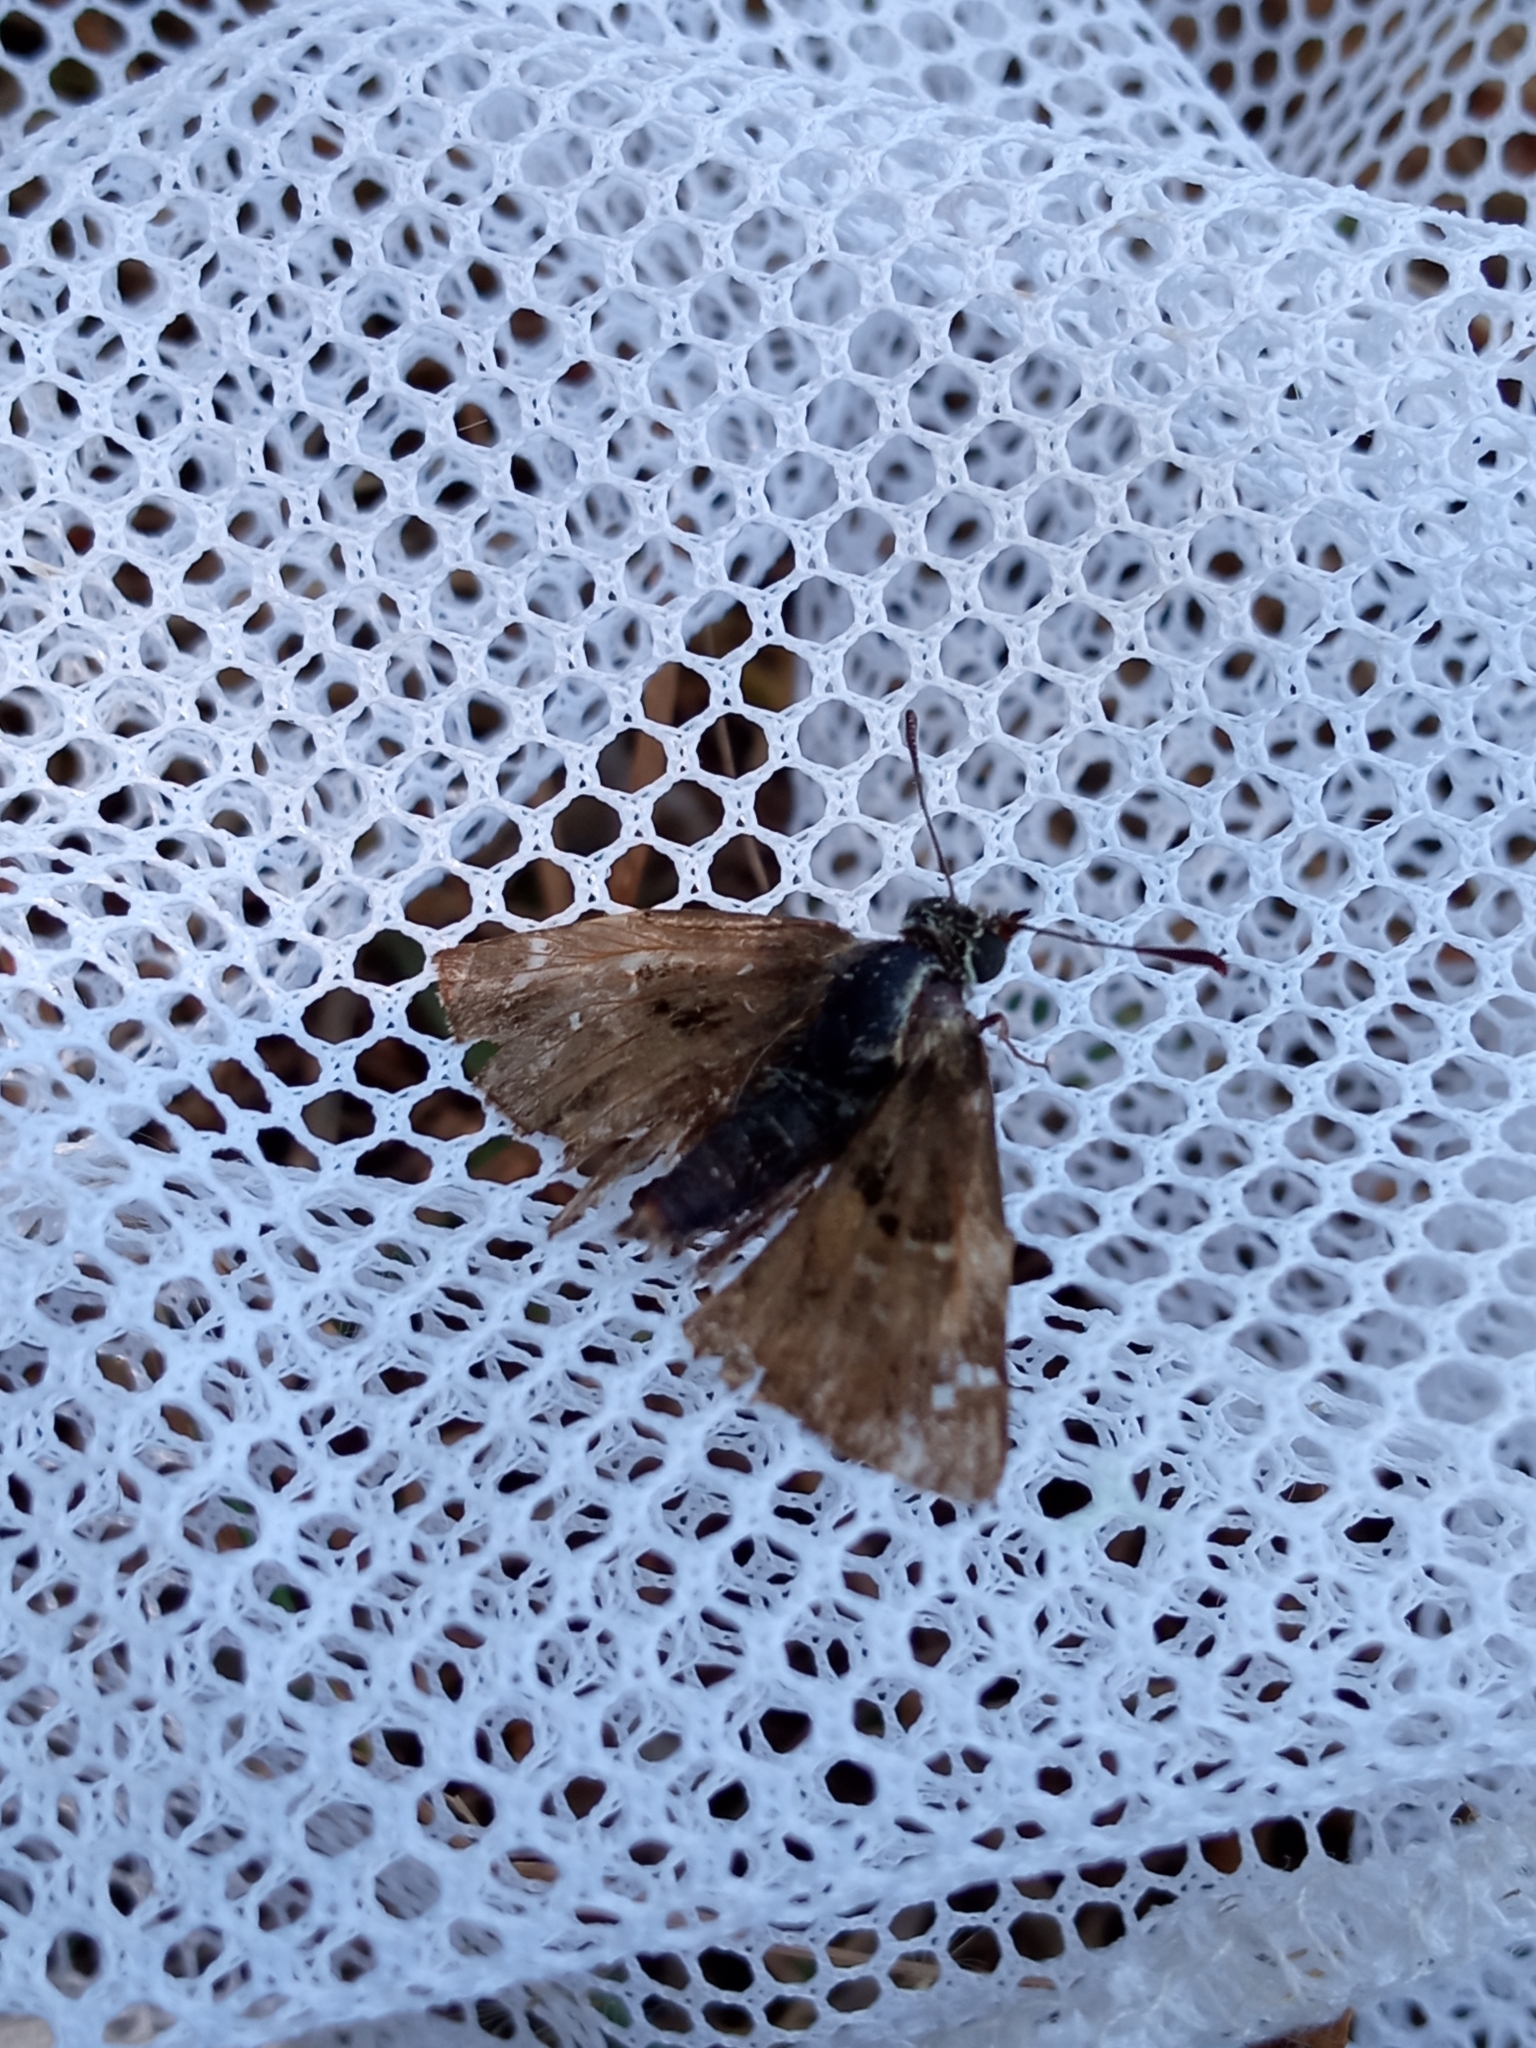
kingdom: Animalia
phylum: Arthropoda
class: Insecta
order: Lepidoptera
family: Hesperiidae
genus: Carcharodus
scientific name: Carcharodus alceae
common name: Mallow skipper
